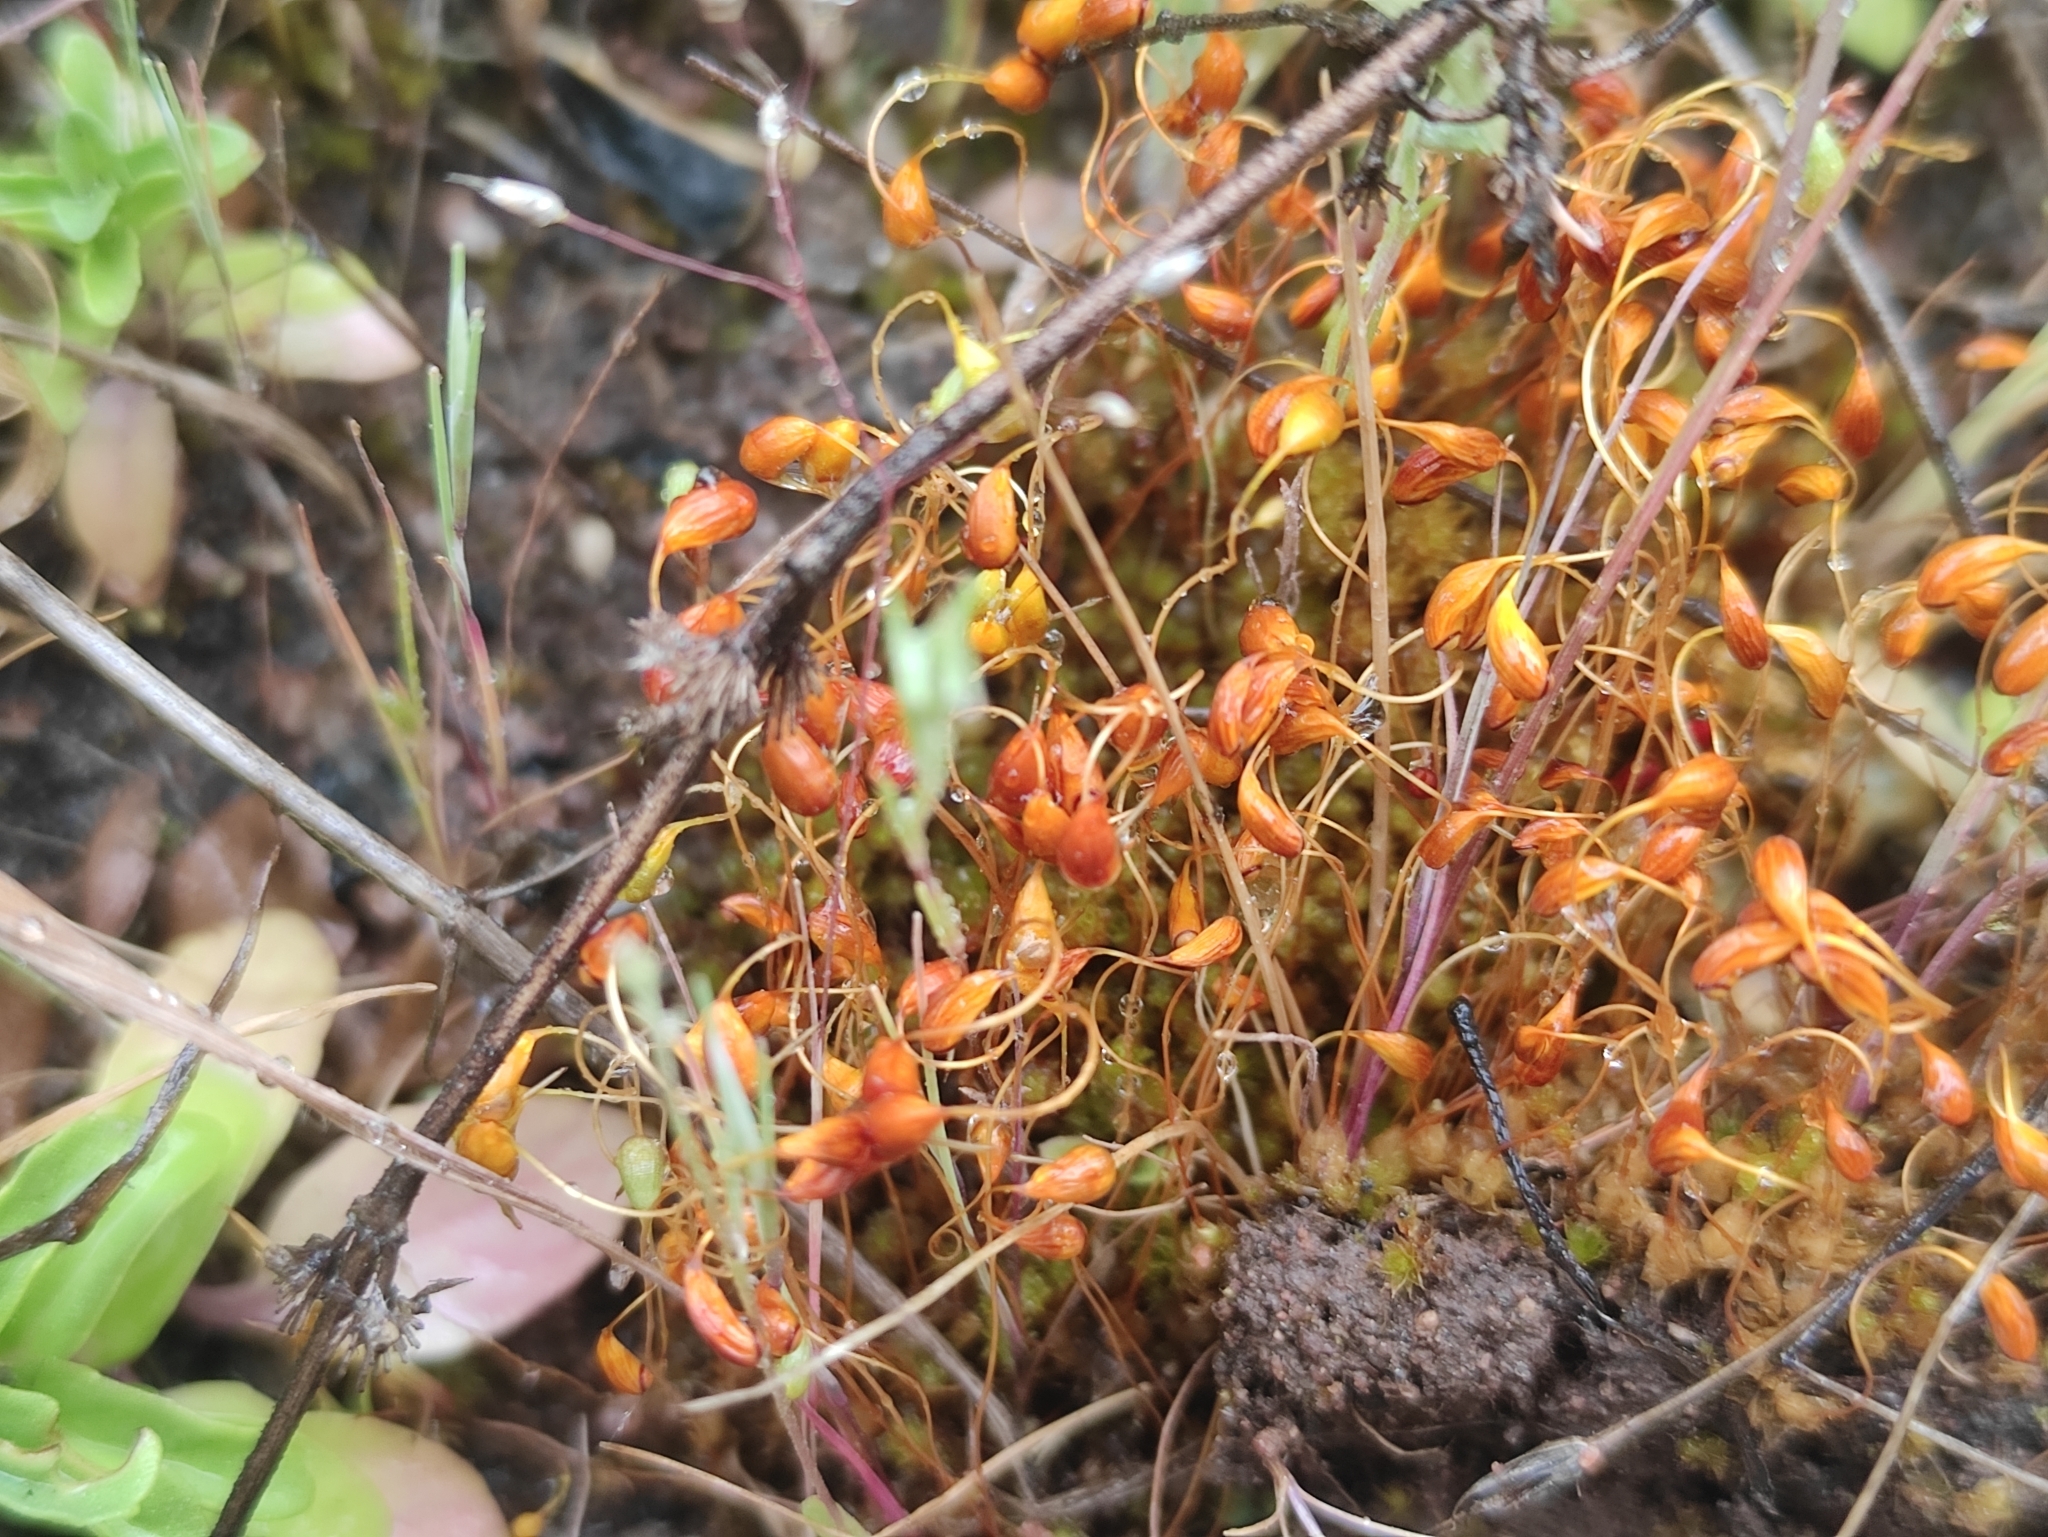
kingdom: Plantae
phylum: Bryophyta
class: Bryopsida
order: Funariales
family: Funariaceae
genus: Funaria
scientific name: Funaria hygrometrica
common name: Common cord moss
